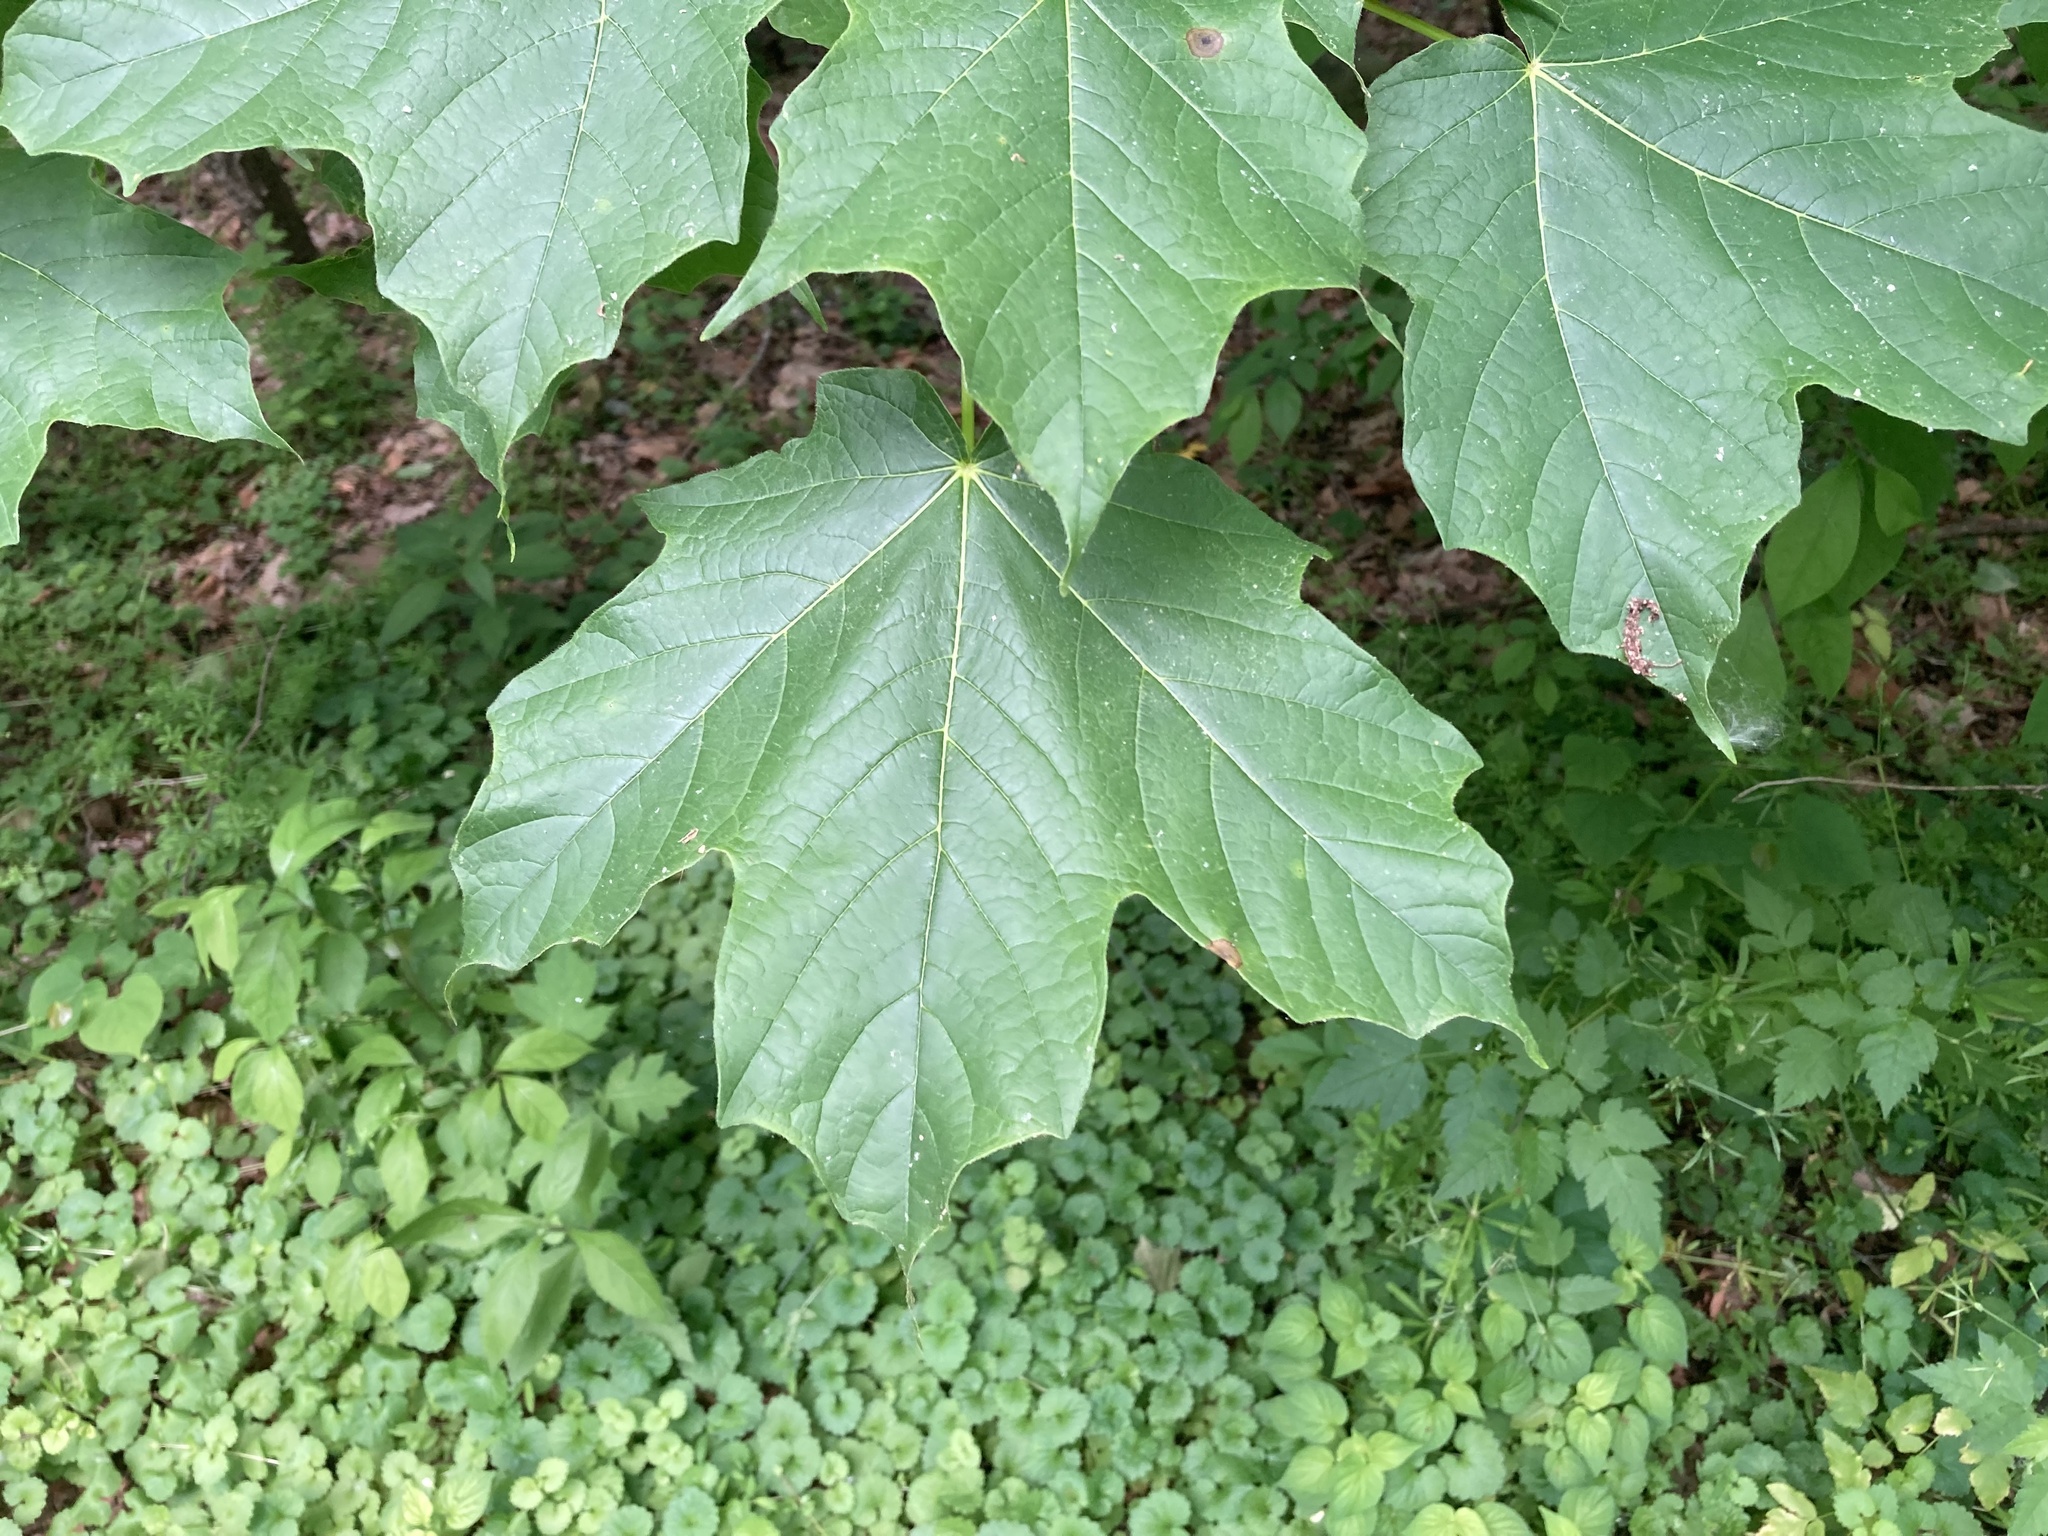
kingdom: Plantae
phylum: Tracheophyta
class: Magnoliopsida
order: Sapindales
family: Sapindaceae
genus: Acer
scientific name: Acer nigrum
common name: Black maple
